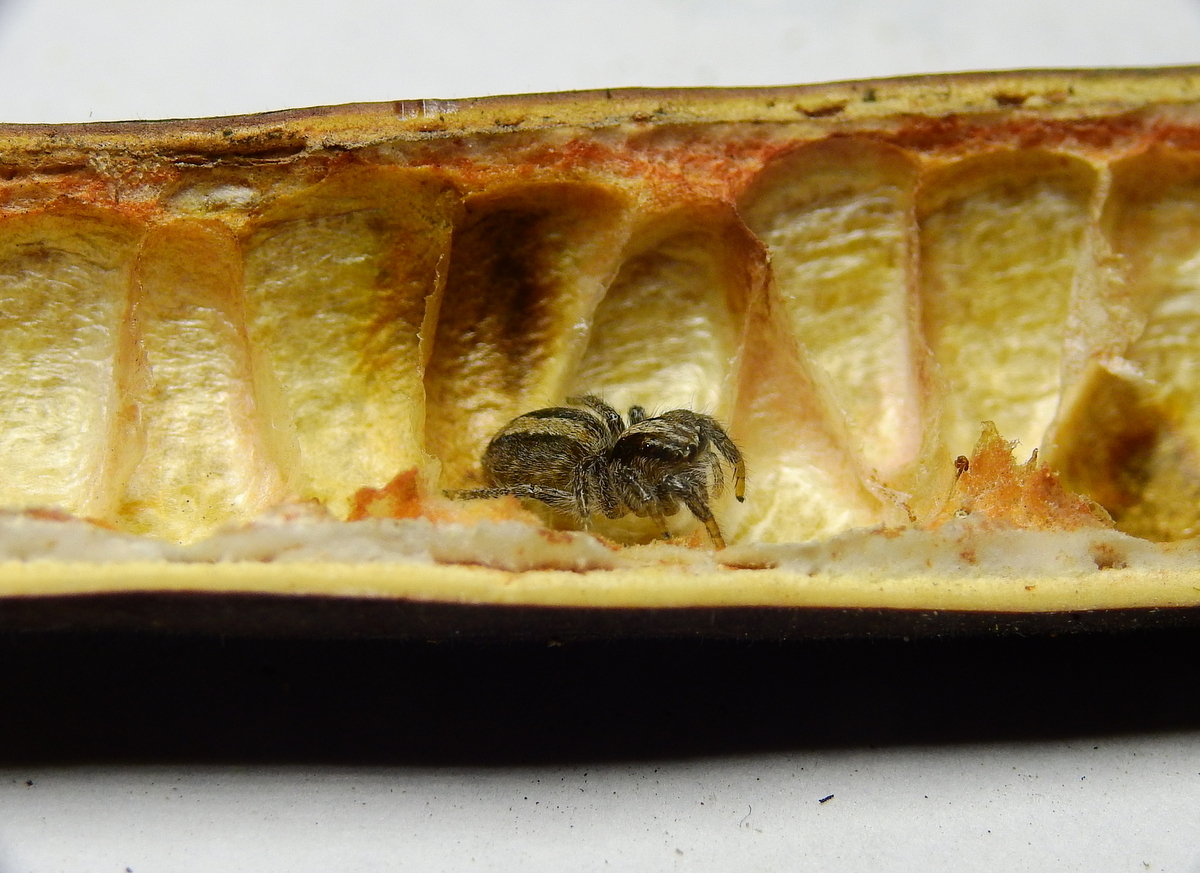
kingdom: Animalia
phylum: Arthropoda
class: Arachnida
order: Araneae
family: Salticidae
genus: Megafreya
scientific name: Megafreya sutrix
